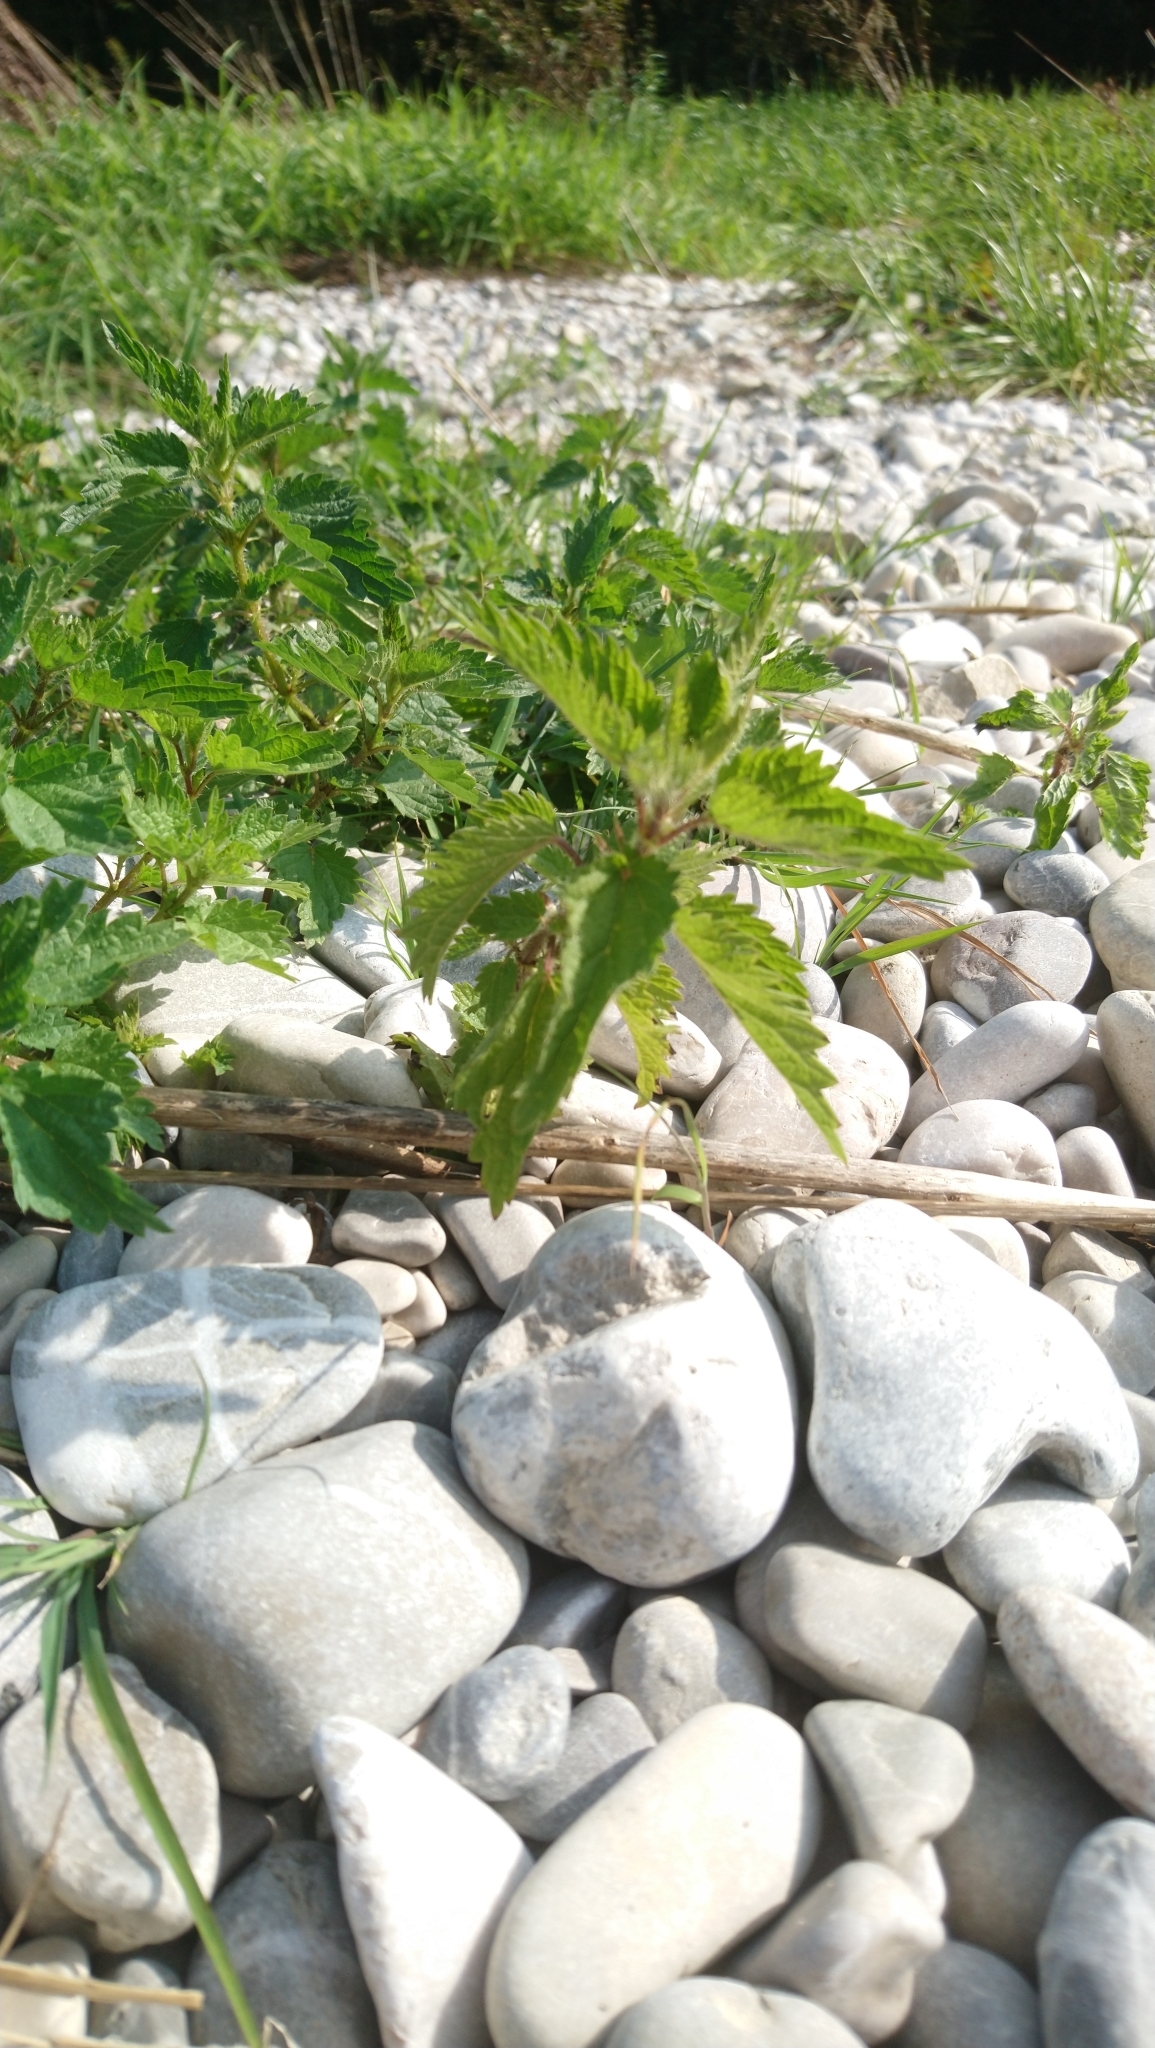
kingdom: Plantae
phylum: Tracheophyta
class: Magnoliopsida
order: Rosales
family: Urticaceae
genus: Urtica
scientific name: Urtica dioica
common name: Common nettle
